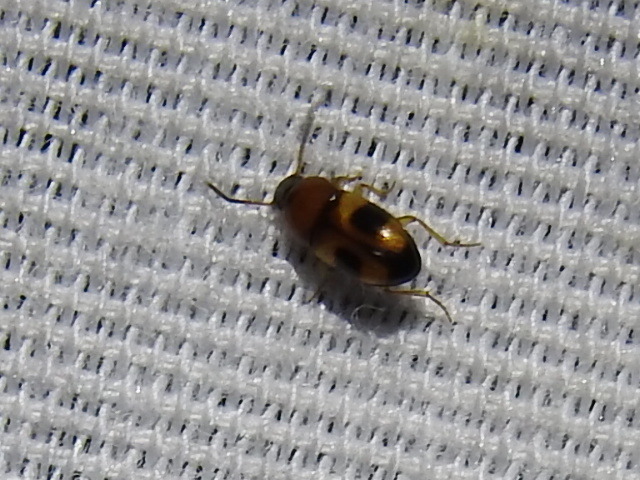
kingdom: Animalia
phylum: Arthropoda
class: Insecta
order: Coleoptera
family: Tenebrionidae
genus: Poecilocrypticus
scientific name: Poecilocrypticus formicophilus
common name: Darkling beetle
